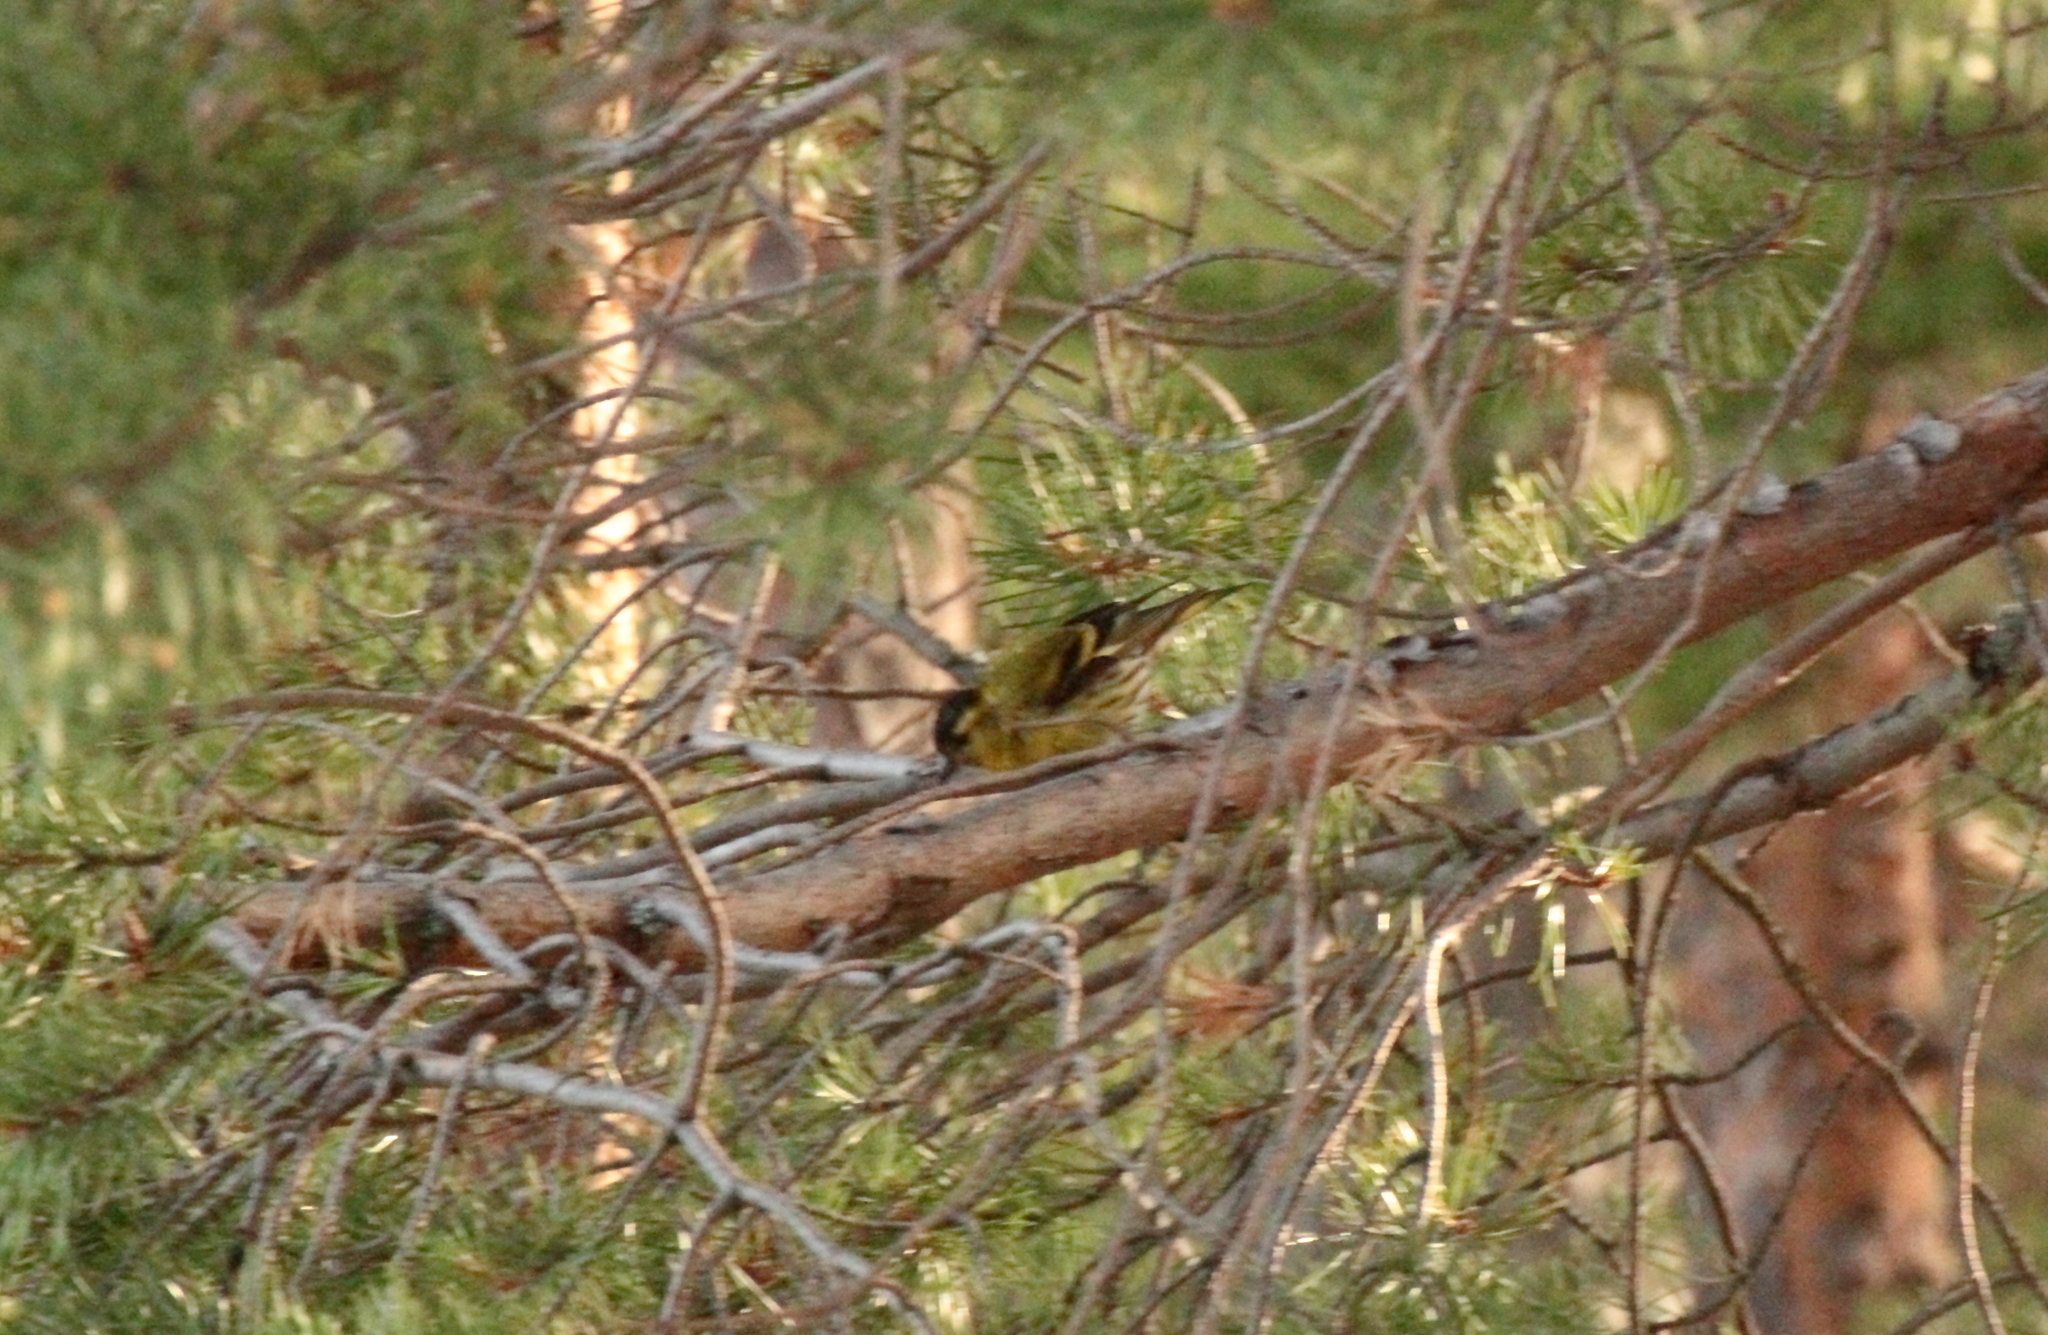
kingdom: Animalia
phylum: Chordata
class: Aves
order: Passeriformes
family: Fringillidae
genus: Spinus
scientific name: Spinus spinus
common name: Eurasian siskin
